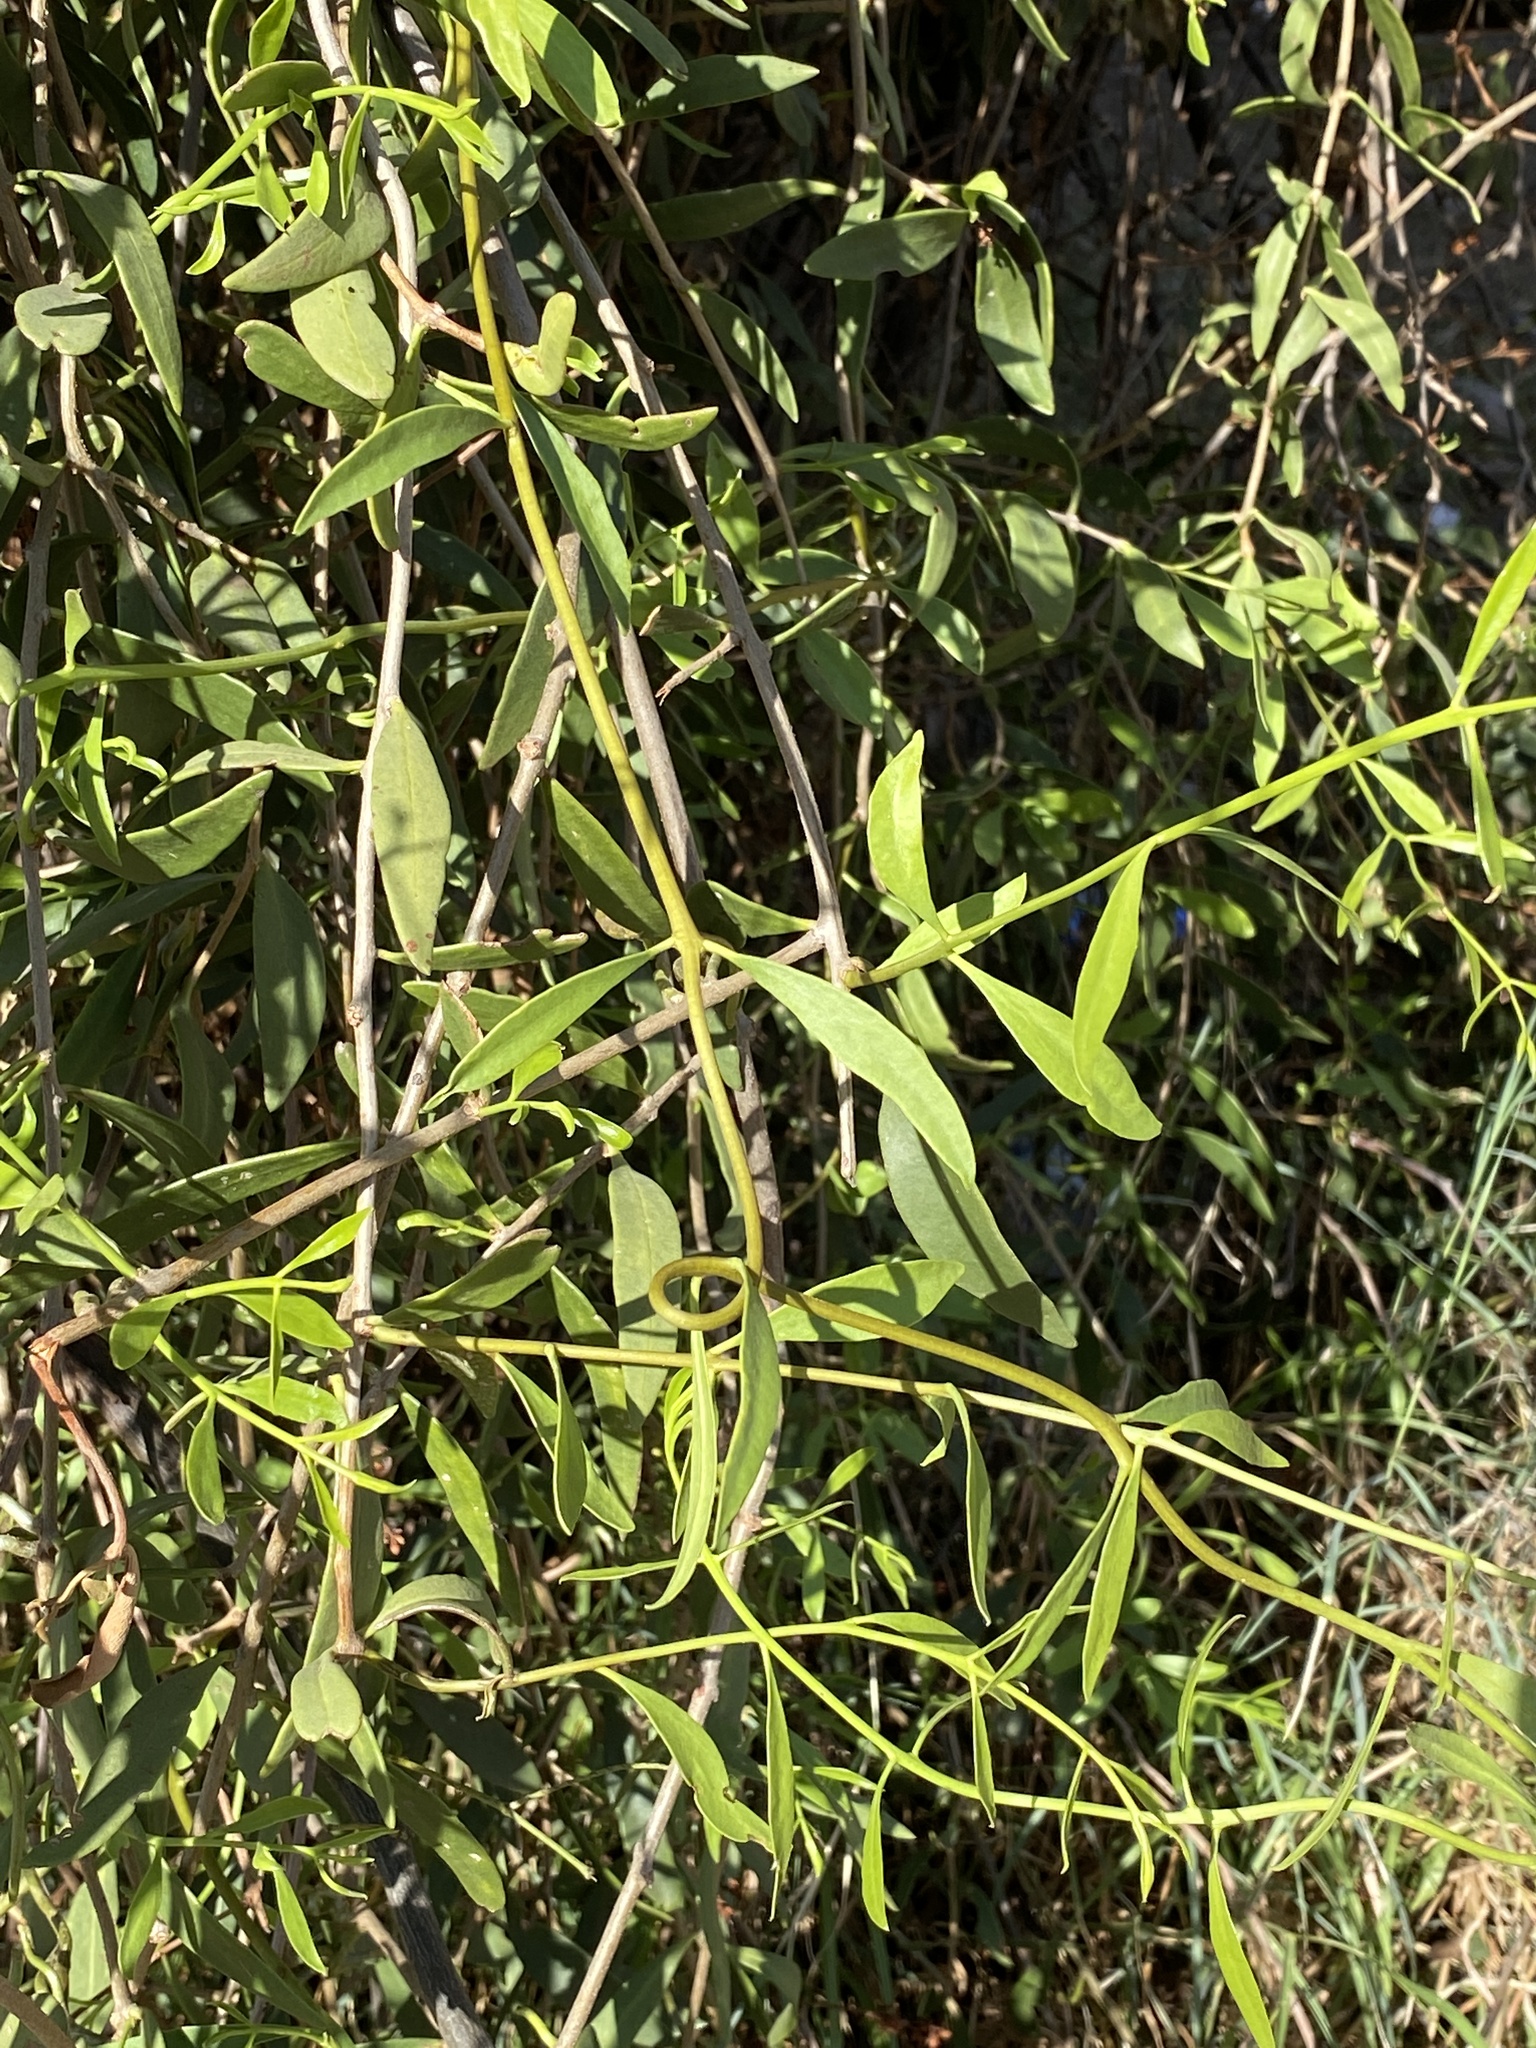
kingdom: Plantae
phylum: Tracheophyta
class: Magnoliopsida
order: Santalales
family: Loranthaceae
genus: Struthanthus
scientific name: Struthanthus palmeri
